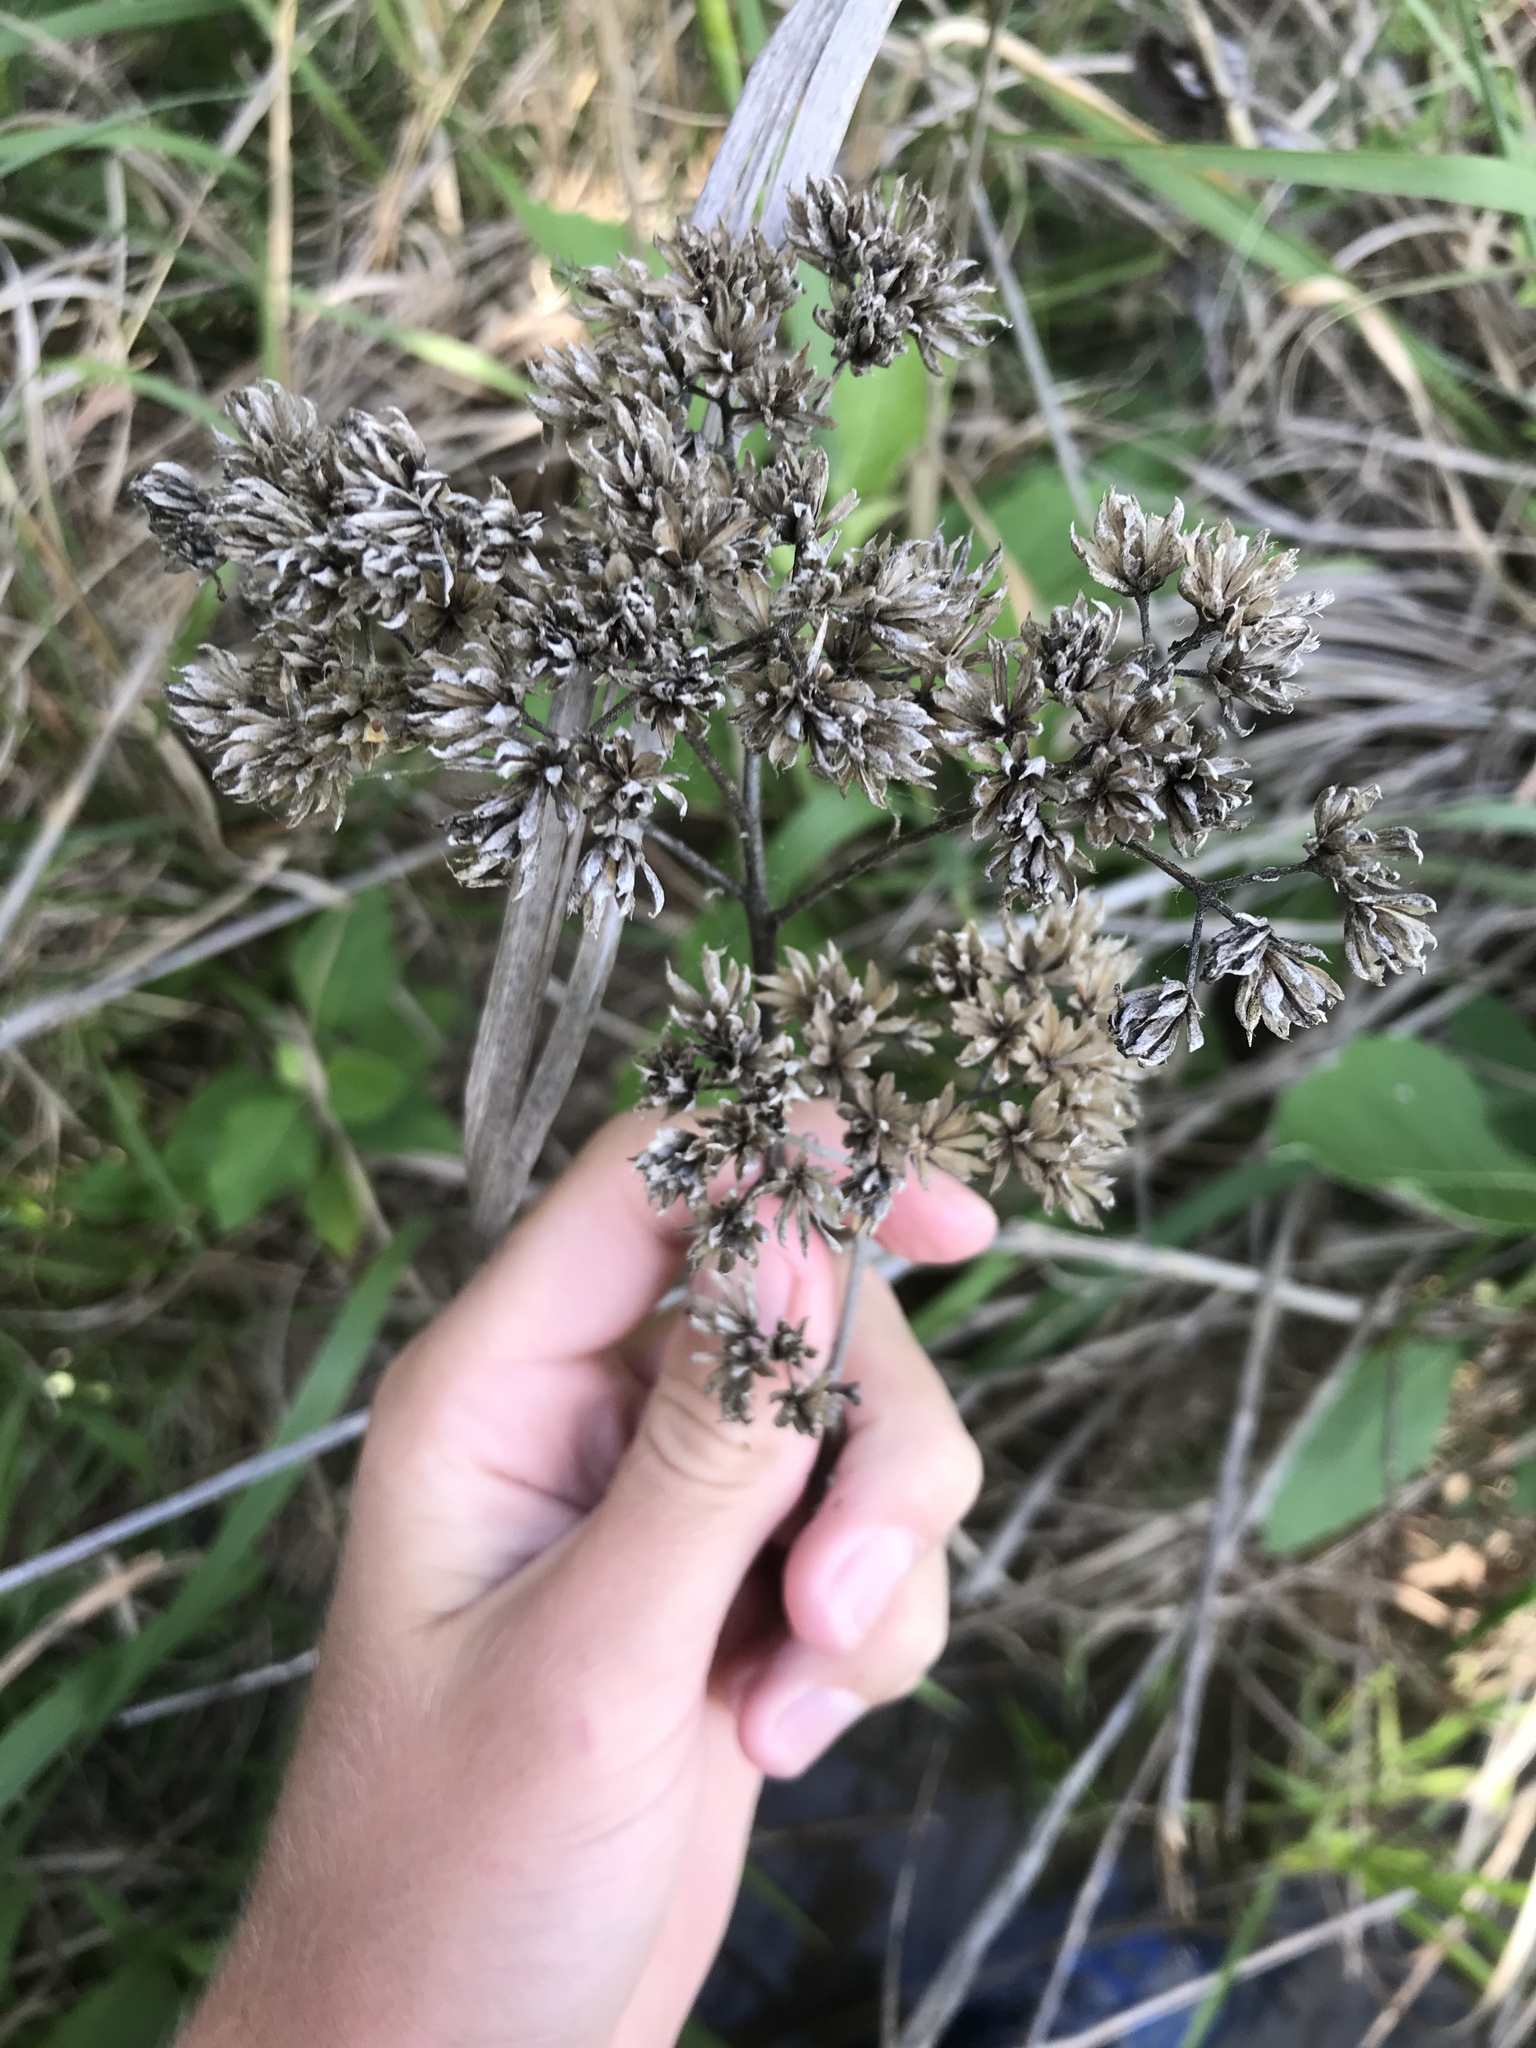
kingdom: Plantae
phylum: Tracheophyta
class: Magnoliopsida
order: Asterales
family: Asteraceae
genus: Verbesina
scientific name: Verbesina virginica
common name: Frostweed
